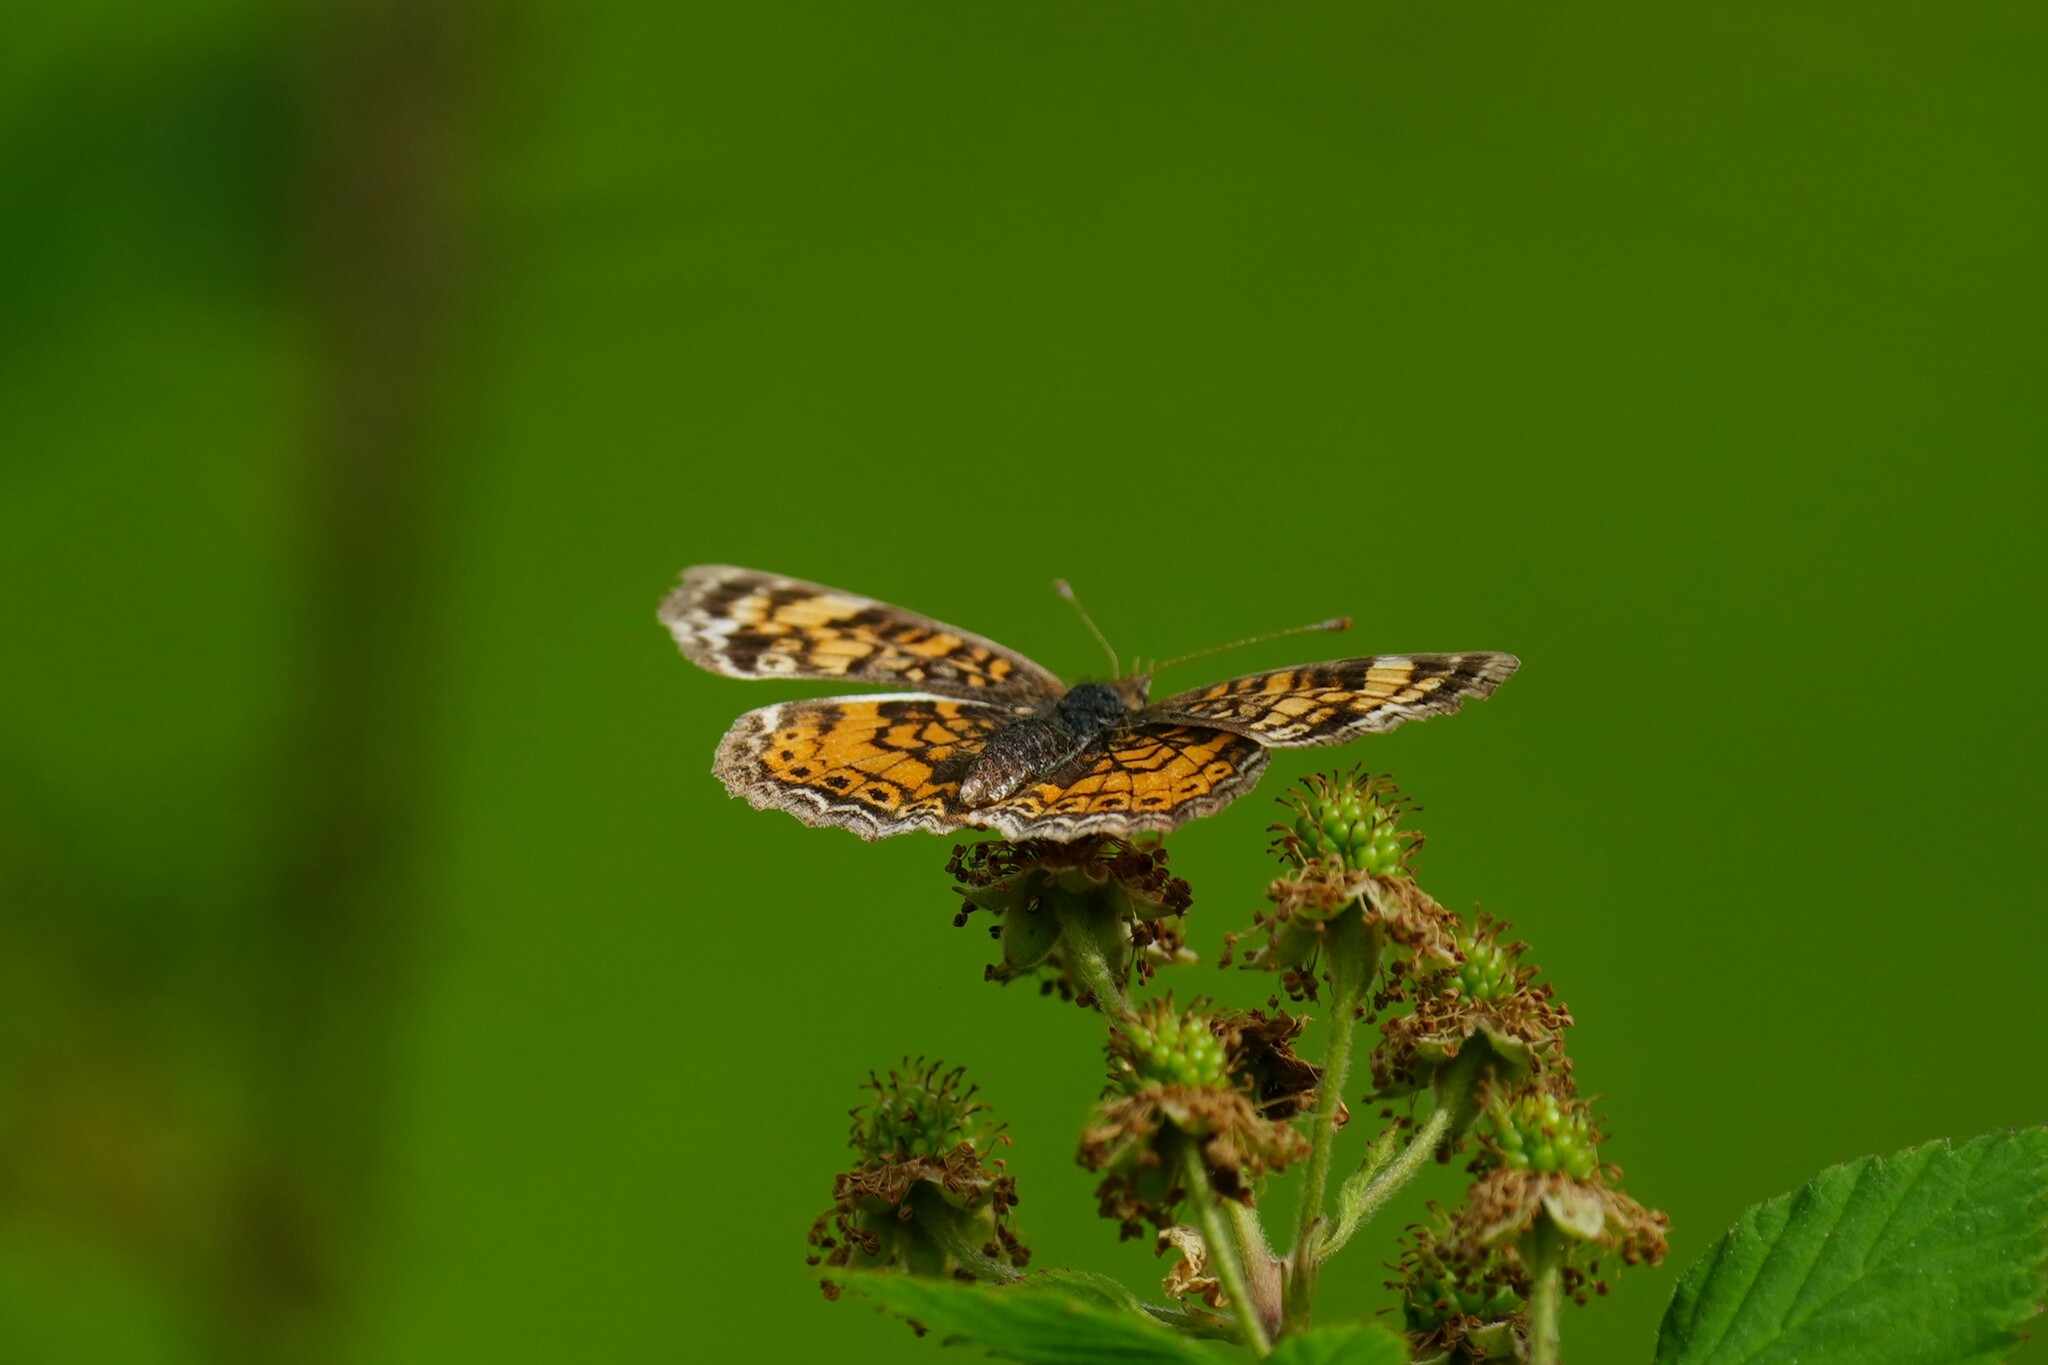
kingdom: Animalia
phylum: Arthropoda
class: Insecta
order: Lepidoptera
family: Nymphalidae
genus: Phyciodes
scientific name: Phyciodes tharos
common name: Pearl crescent
